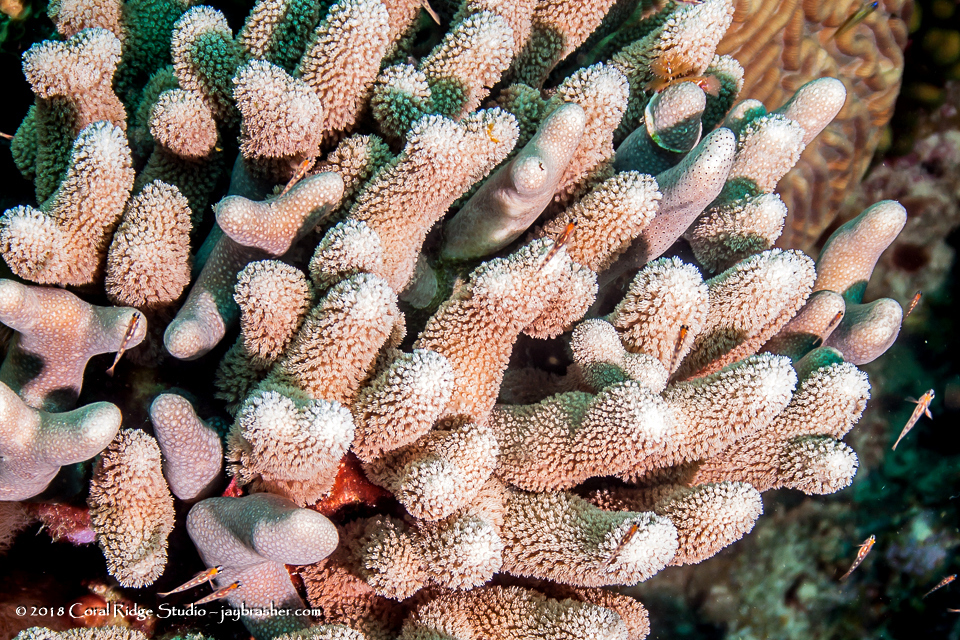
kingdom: Animalia
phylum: Cnidaria
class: Anthozoa
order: Scleractinia
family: Poritidae
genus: Porites
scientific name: Porites furcata
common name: Hump coral
